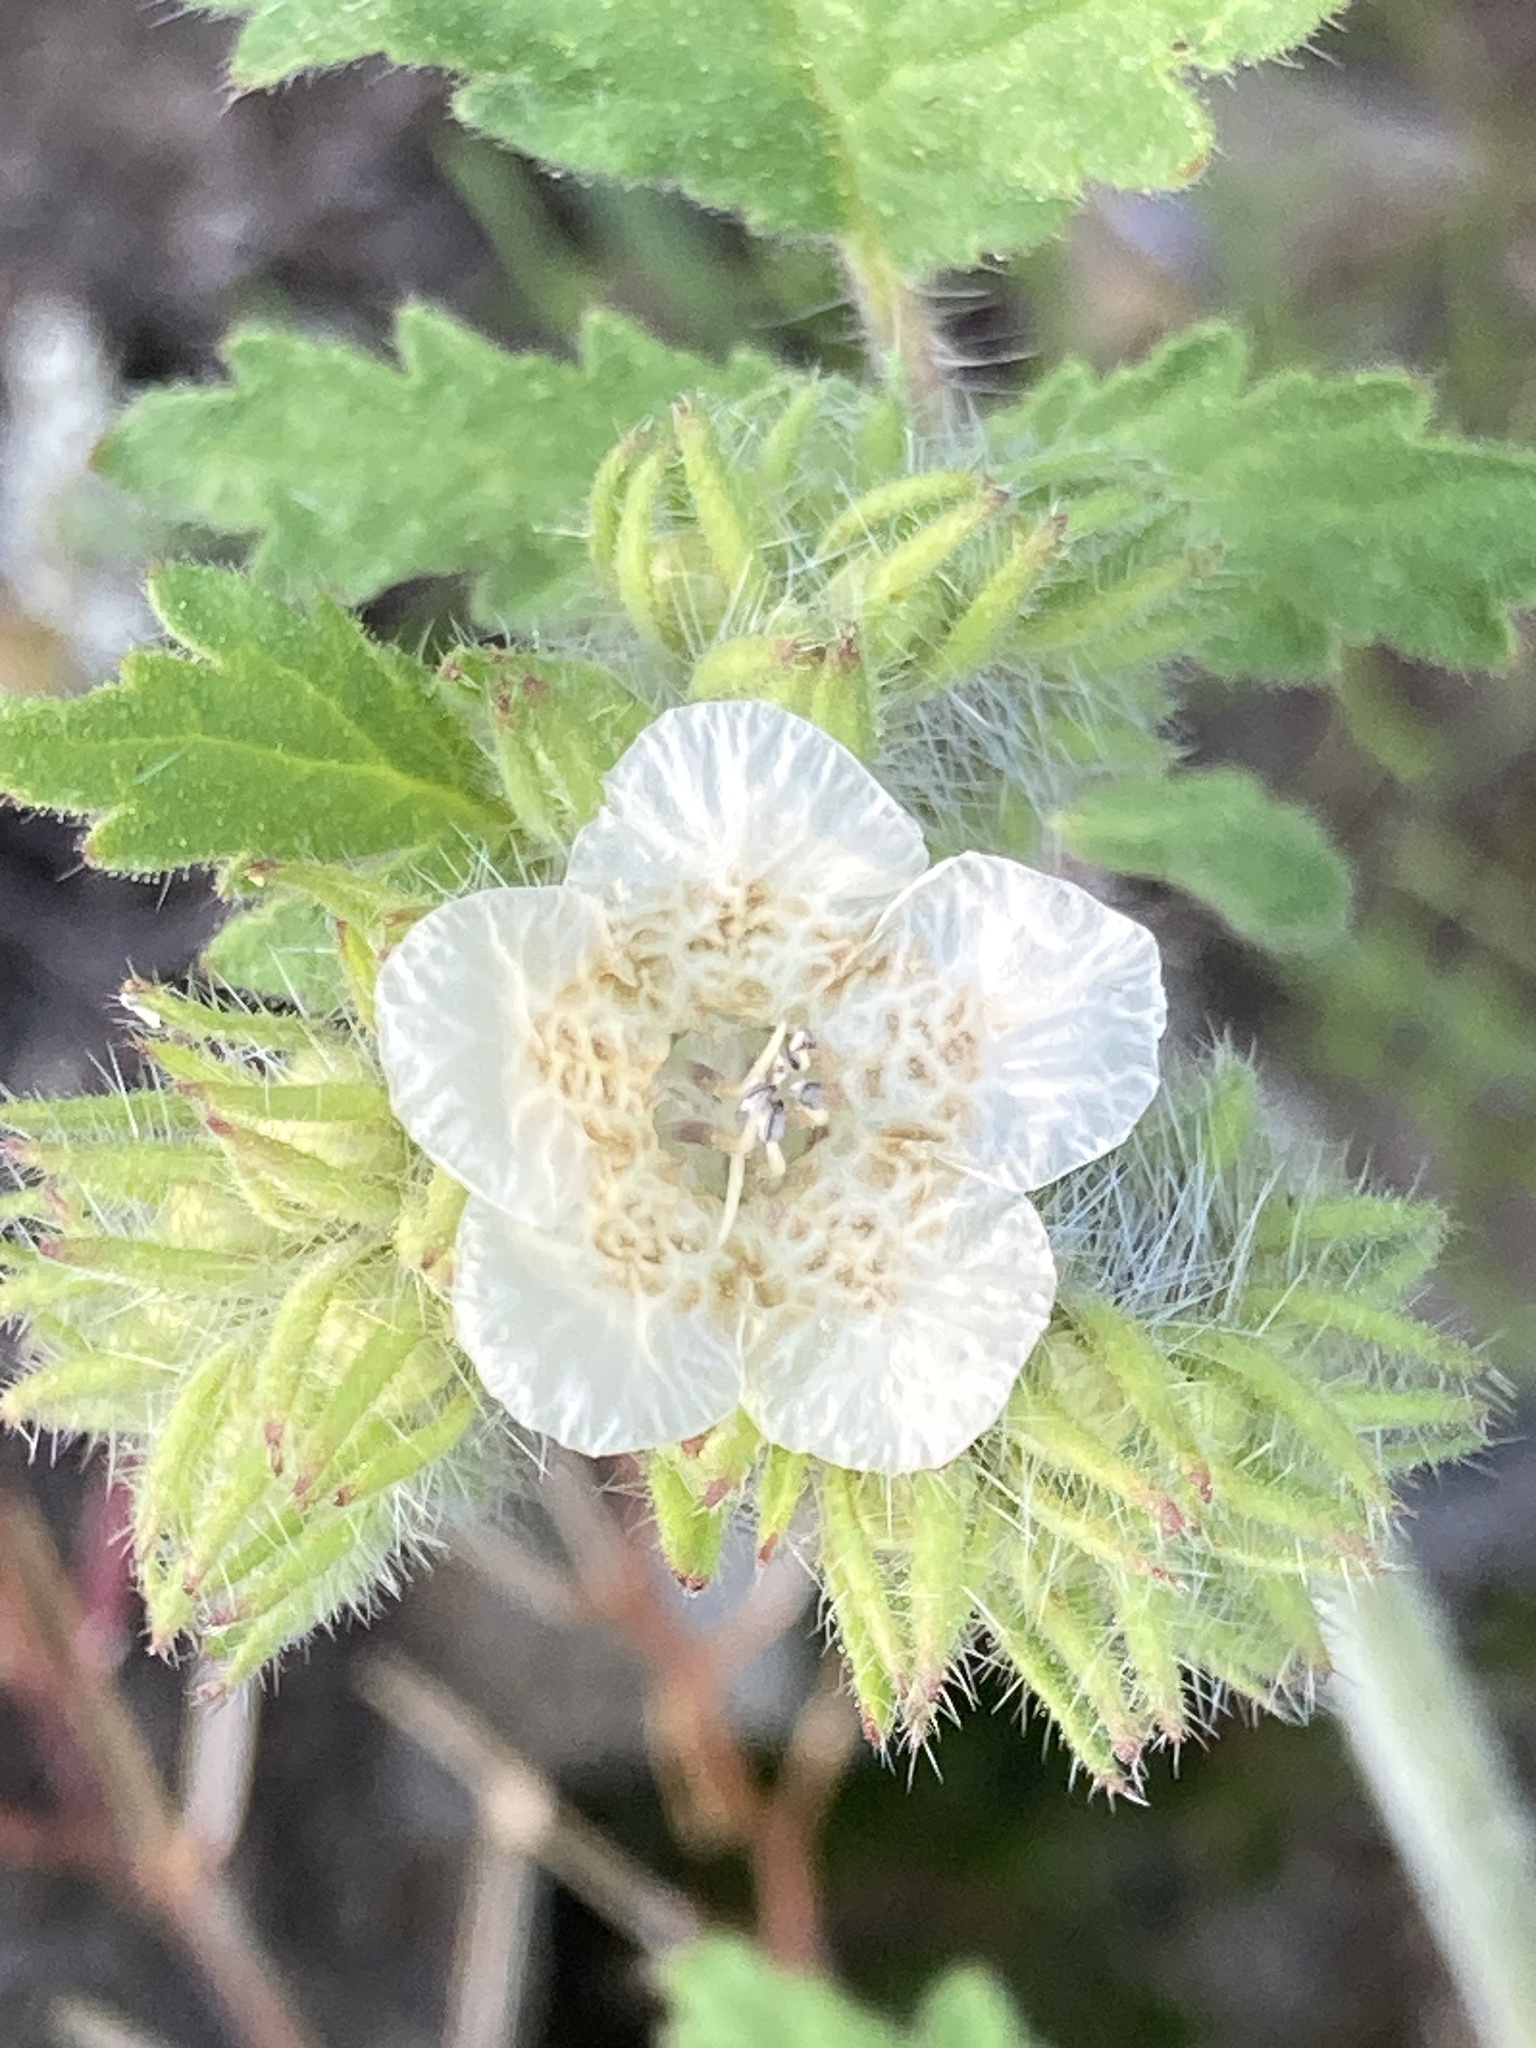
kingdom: Plantae
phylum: Tracheophyta
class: Magnoliopsida
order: Boraginales
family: Hydrophyllaceae
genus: Phacelia
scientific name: Phacelia cicutaria
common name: Caterpillar phacelia
